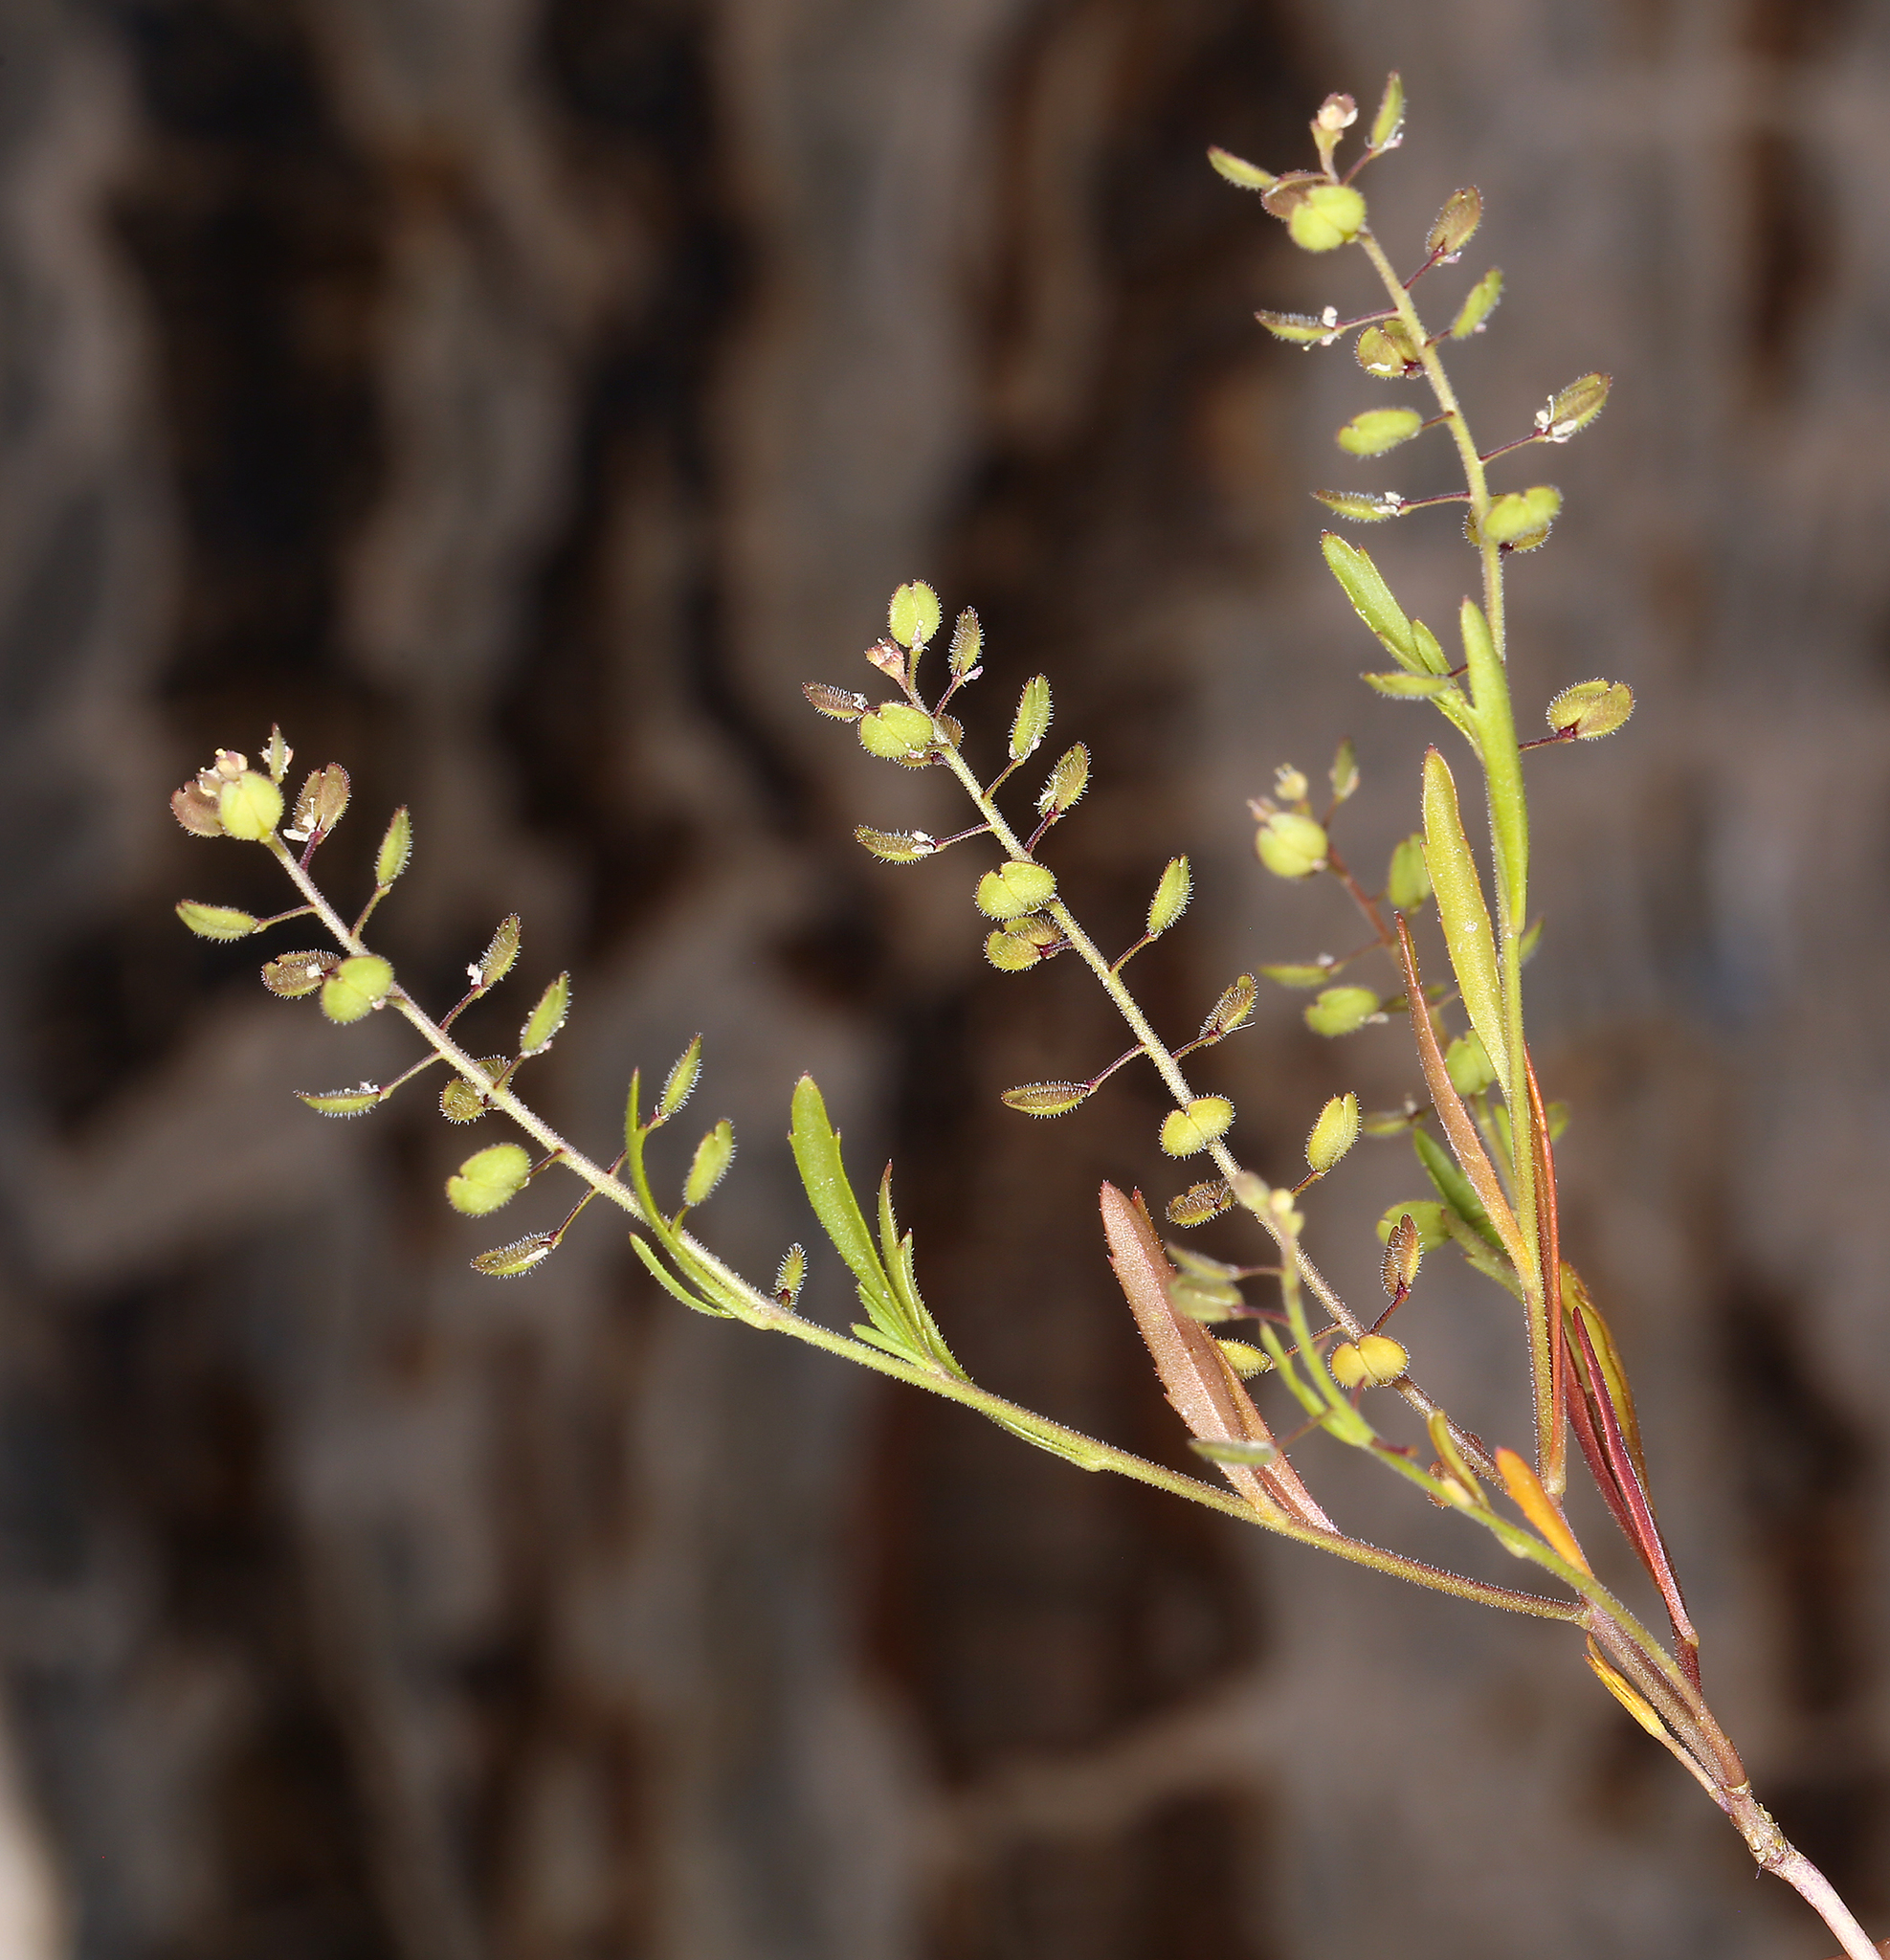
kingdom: Plantae
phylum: Tracheophyta
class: Magnoliopsida
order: Brassicales
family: Brassicaceae
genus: Lepidium
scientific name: Lepidium lasiocarpum
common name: Hairy-pod pepperwort
